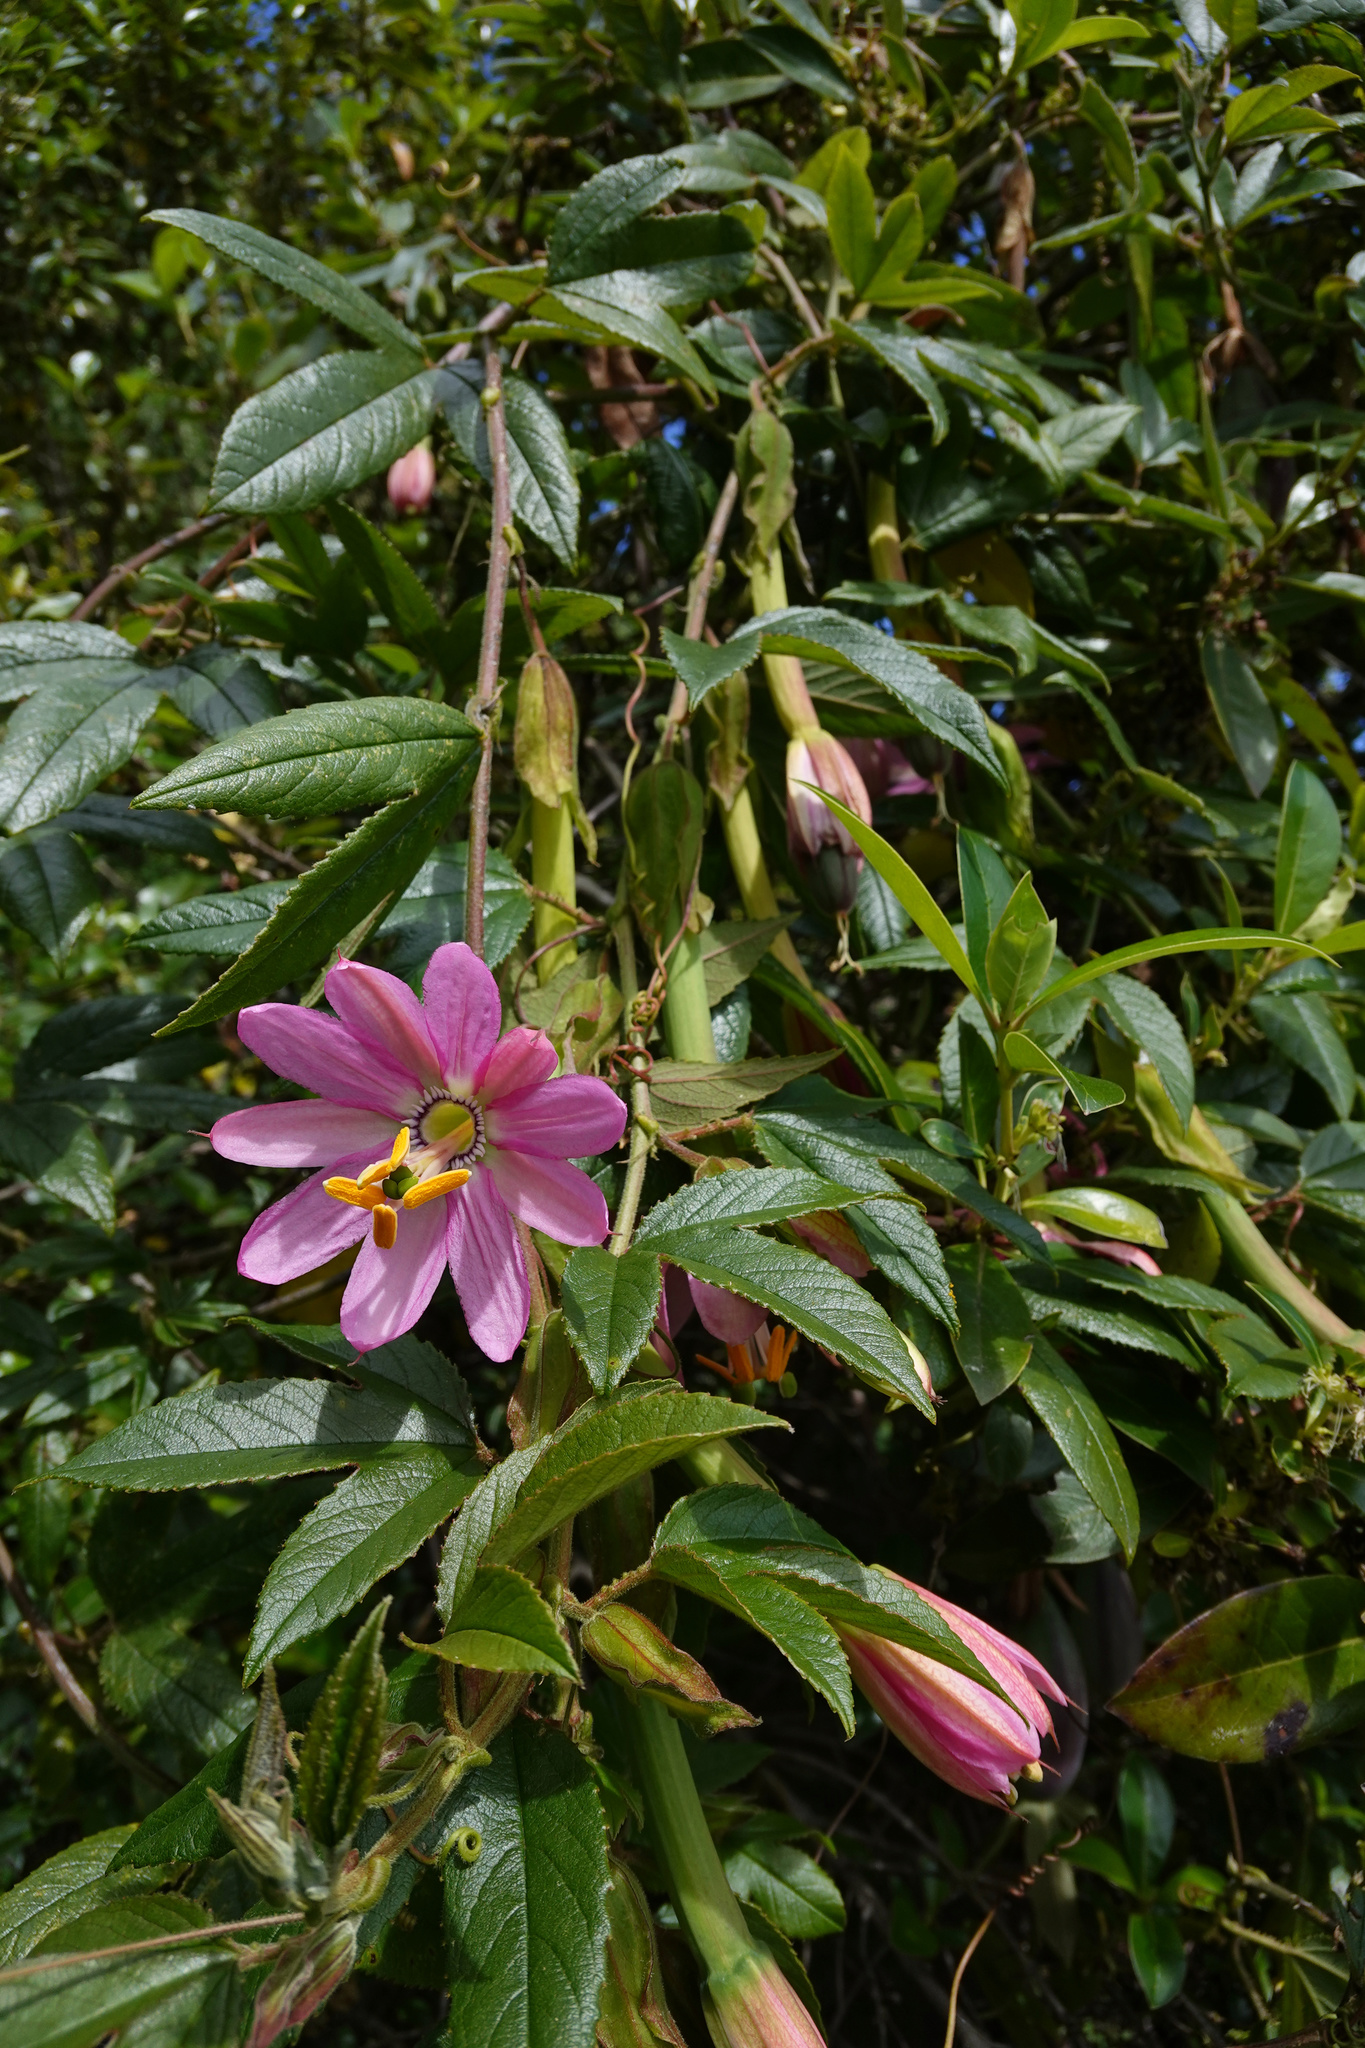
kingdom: Plantae
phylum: Tracheophyta
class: Magnoliopsida
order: Malpighiales
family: Passifloraceae
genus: Passiflora
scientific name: Passiflora tripartita
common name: Banana poka
